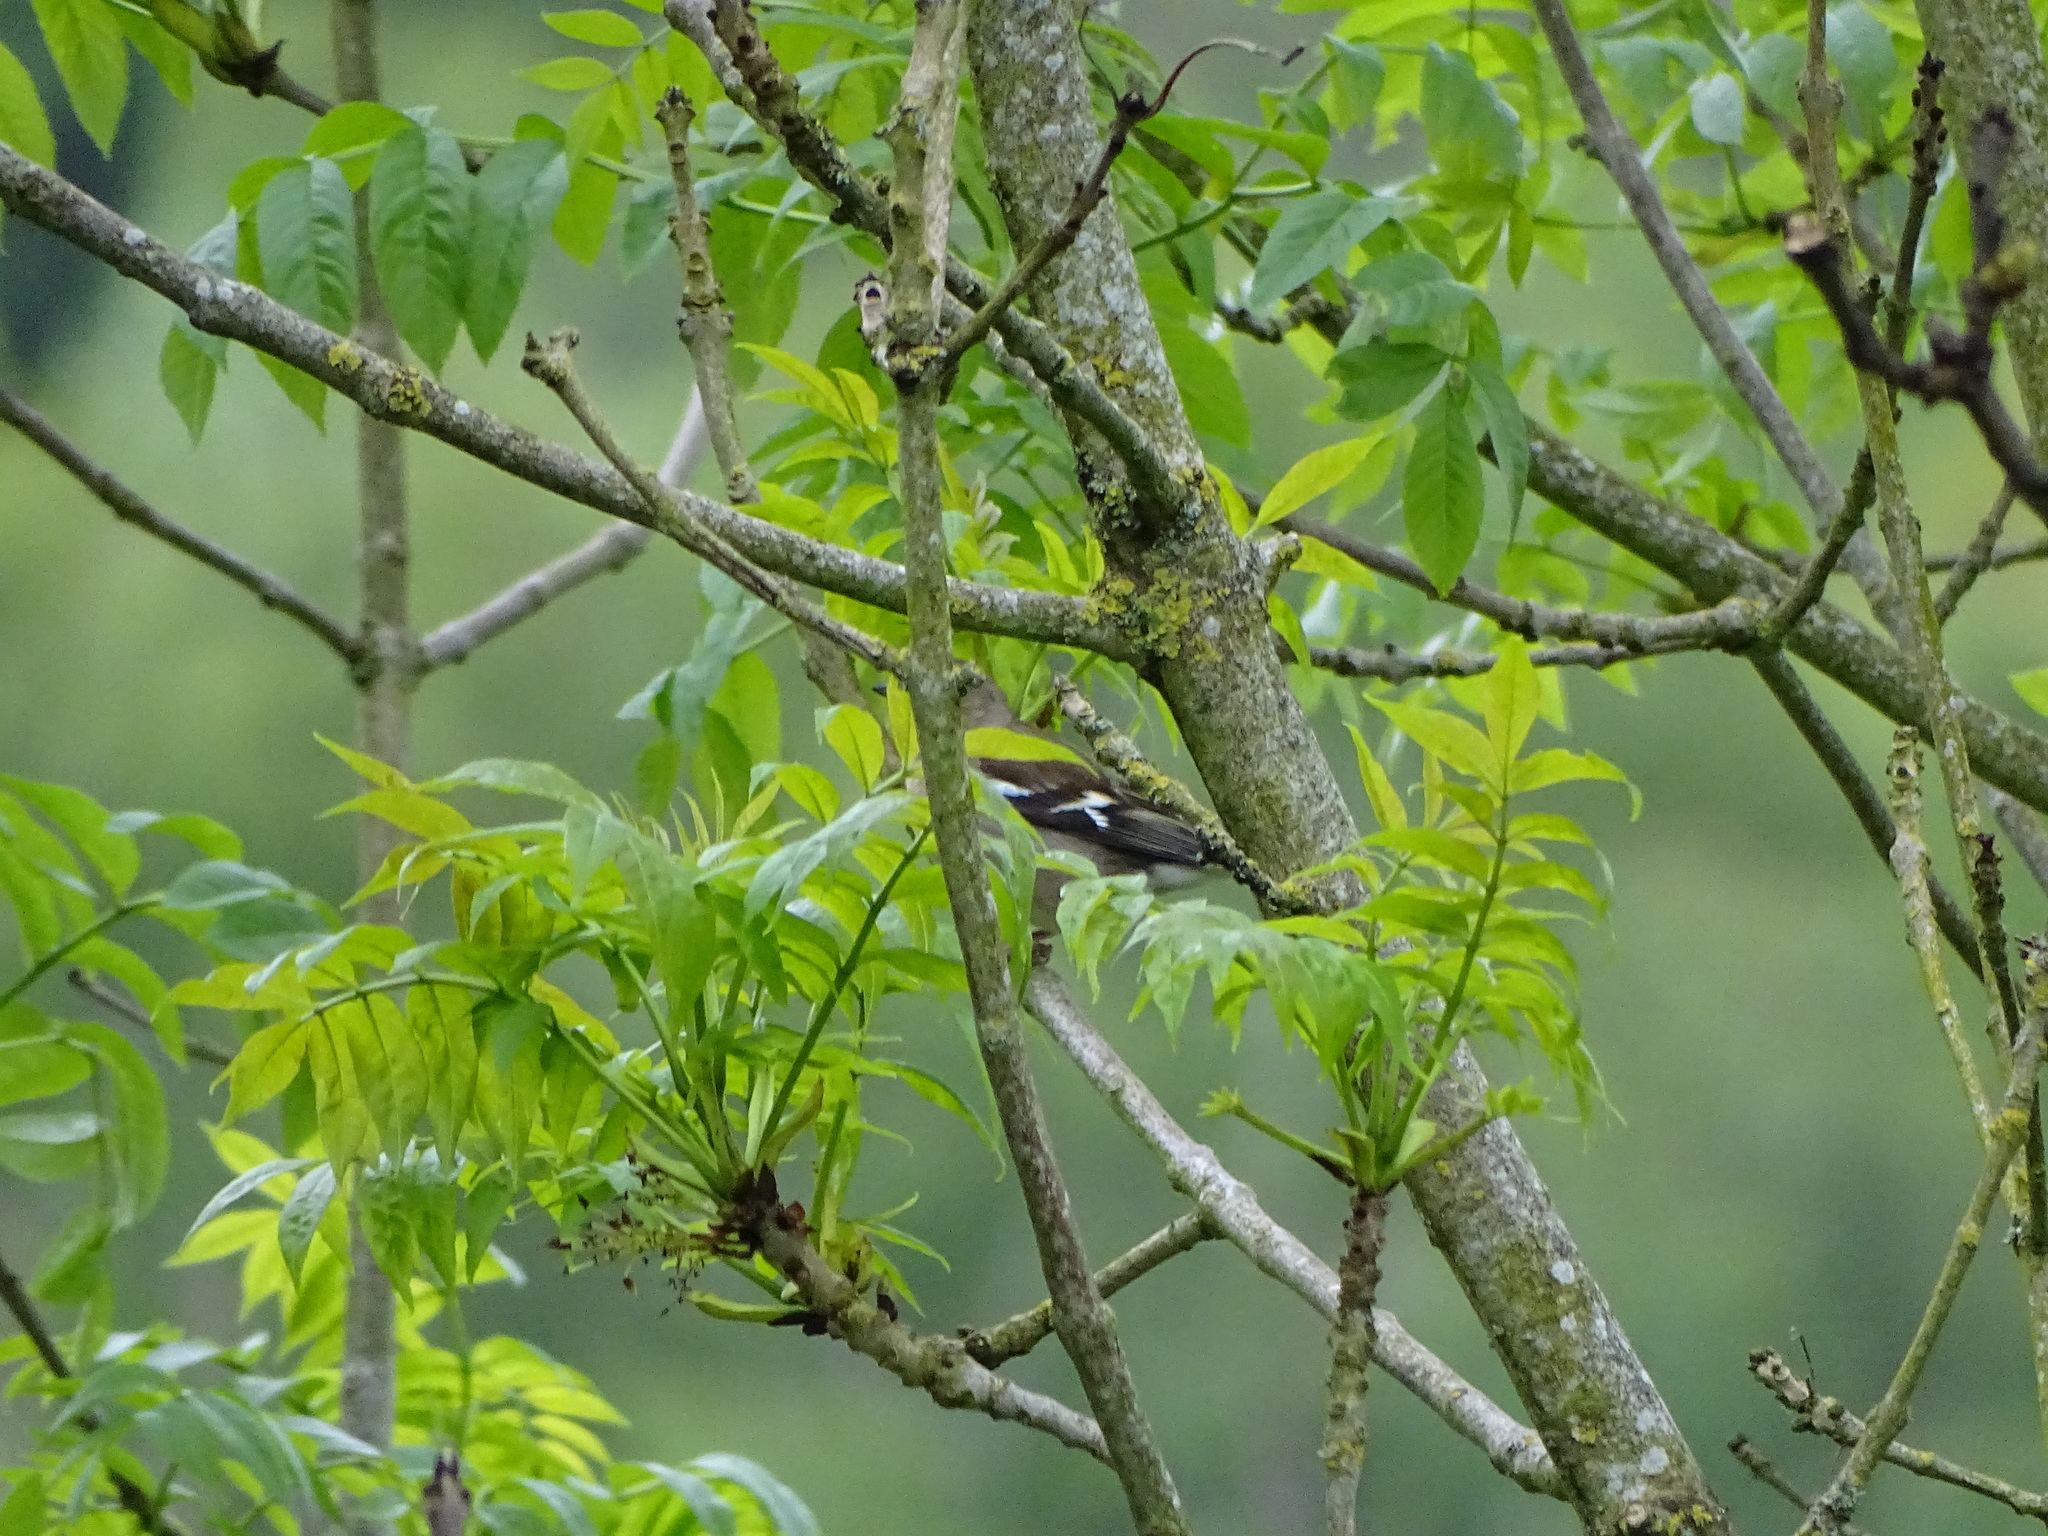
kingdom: Animalia
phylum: Chordata
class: Aves
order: Passeriformes
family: Fringillidae
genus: Fringilla
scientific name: Fringilla coelebs
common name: Common chaffinch
